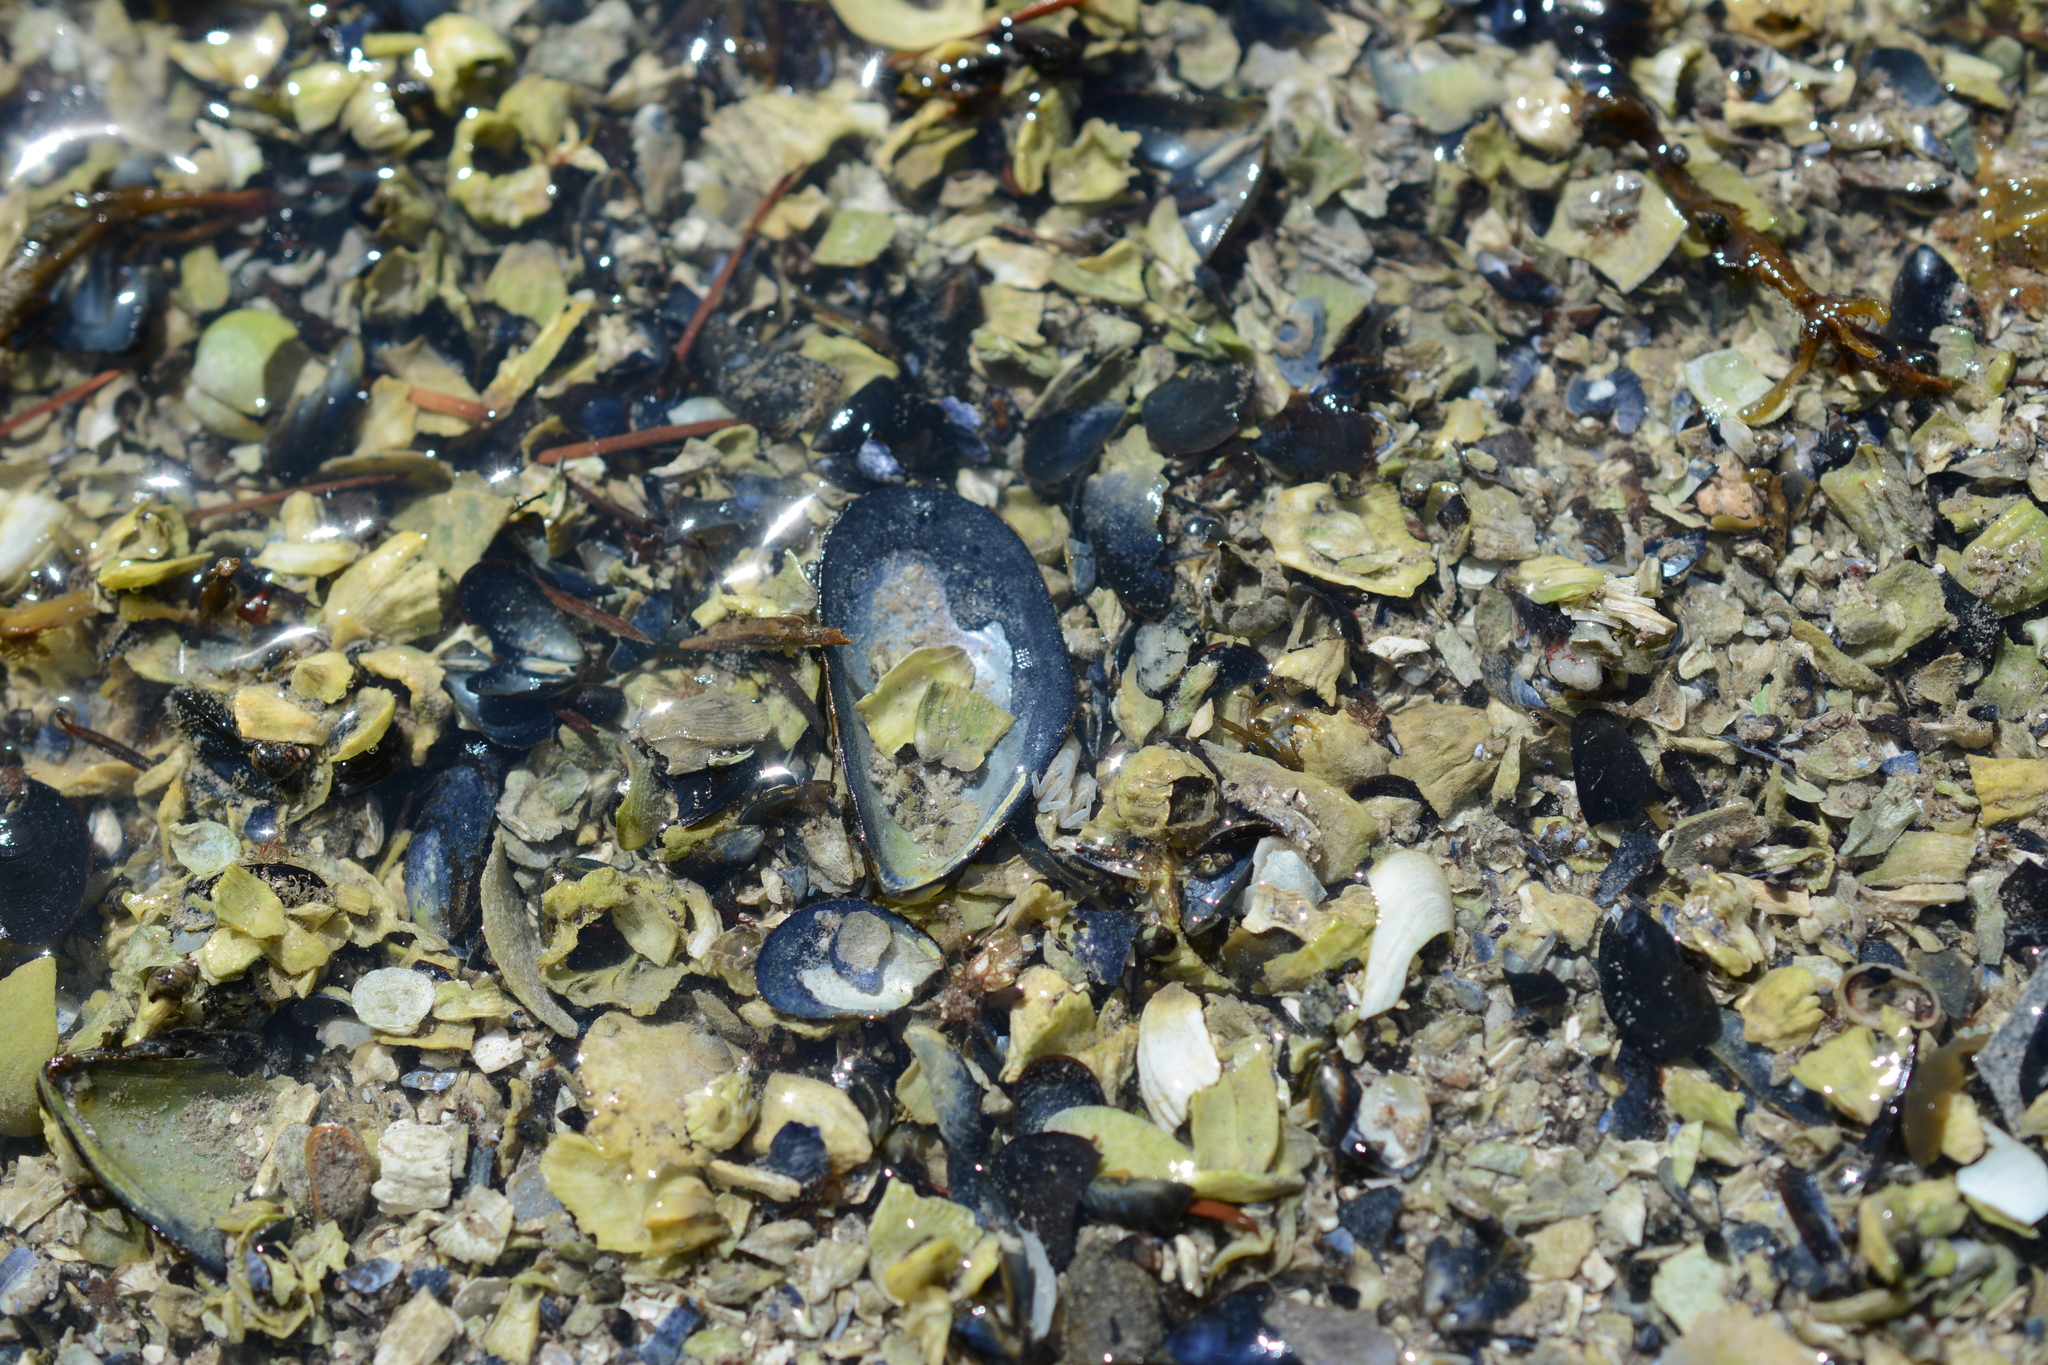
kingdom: Animalia
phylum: Mollusca
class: Bivalvia
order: Mytilida
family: Mytilidae
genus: Mytilus
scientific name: Mytilus
